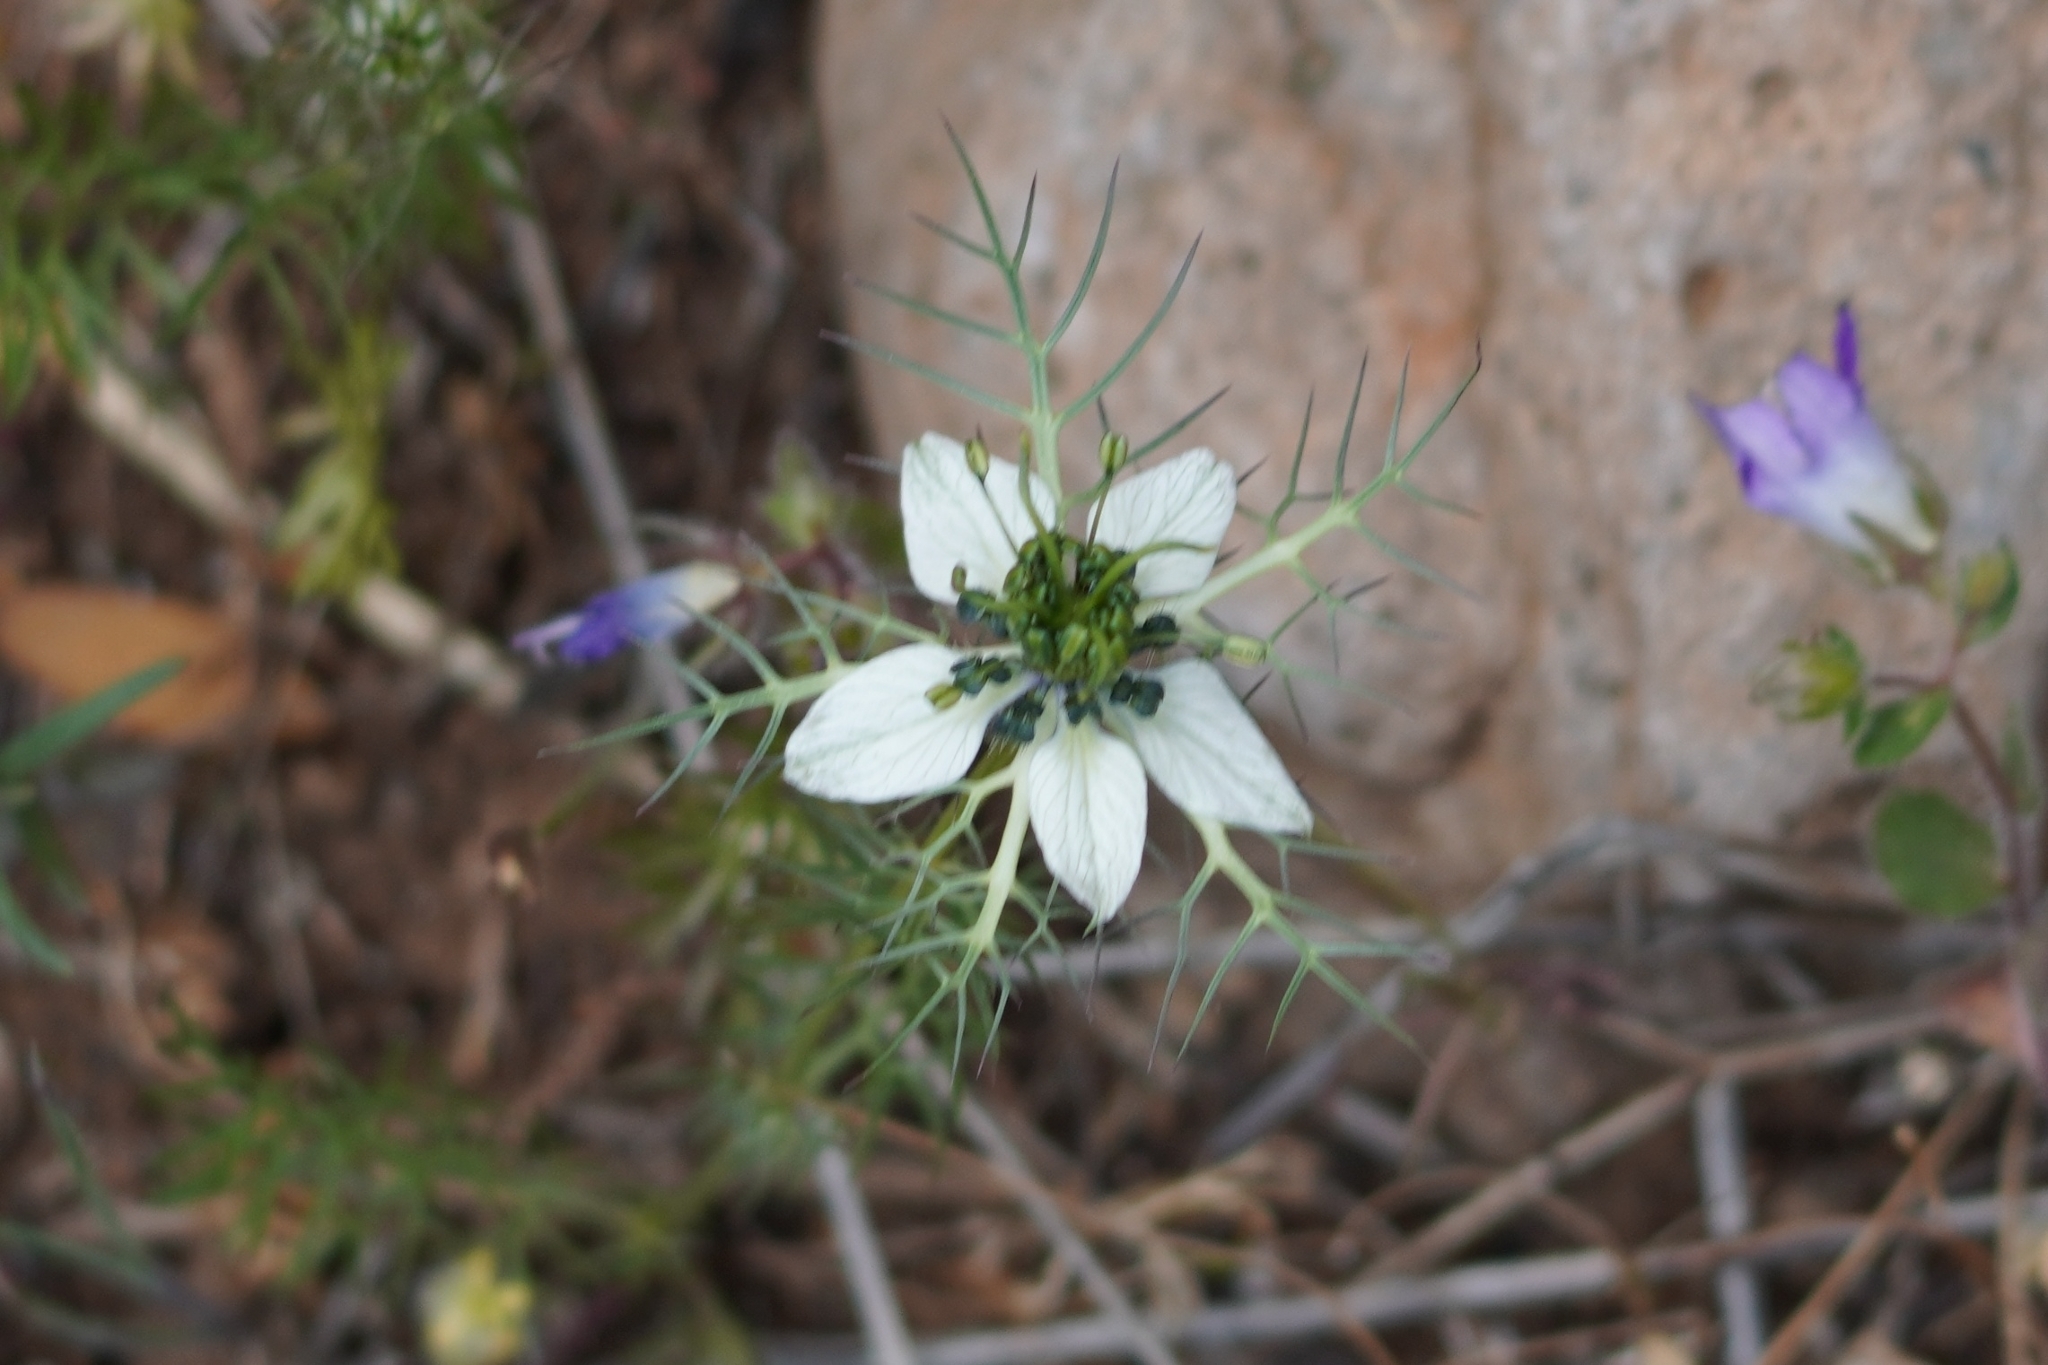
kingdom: Plantae
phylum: Tracheophyta
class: Magnoliopsida
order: Ranunculales
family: Ranunculaceae
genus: Nigella
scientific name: Nigella damascena
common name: Love-in-a-mist
